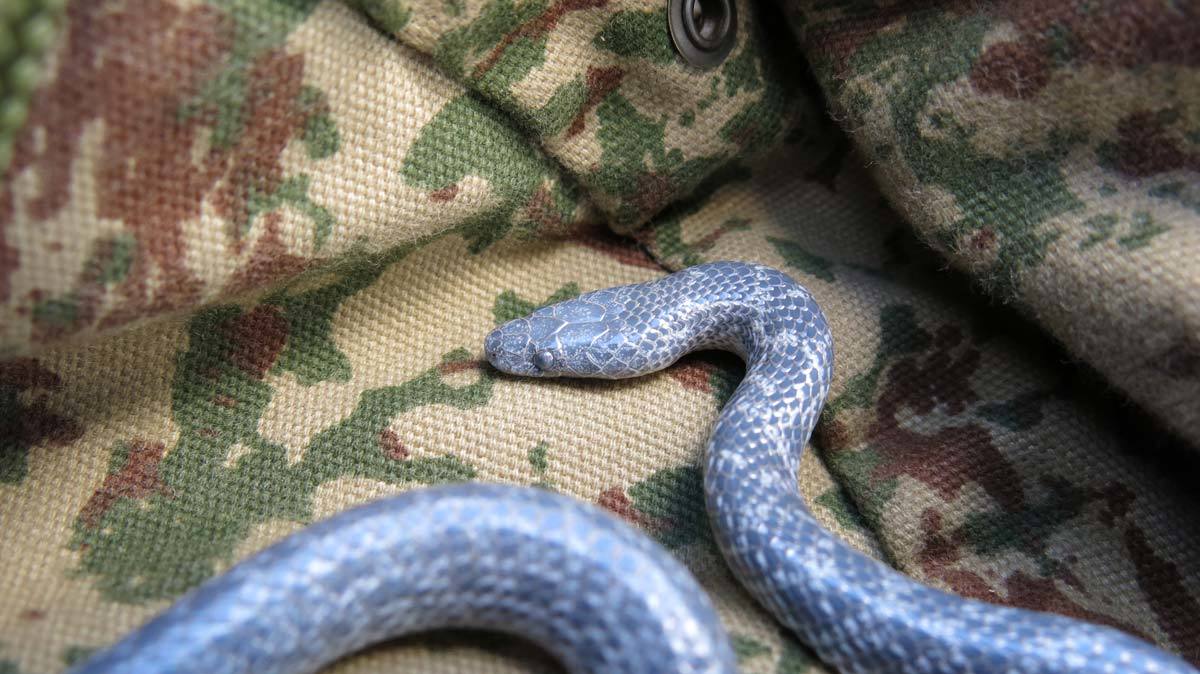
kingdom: Animalia
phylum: Chordata
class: Squamata
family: Lamprophiidae
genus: Lycophidion
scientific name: Lycophidion variegatum
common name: Variegated wolf snake
